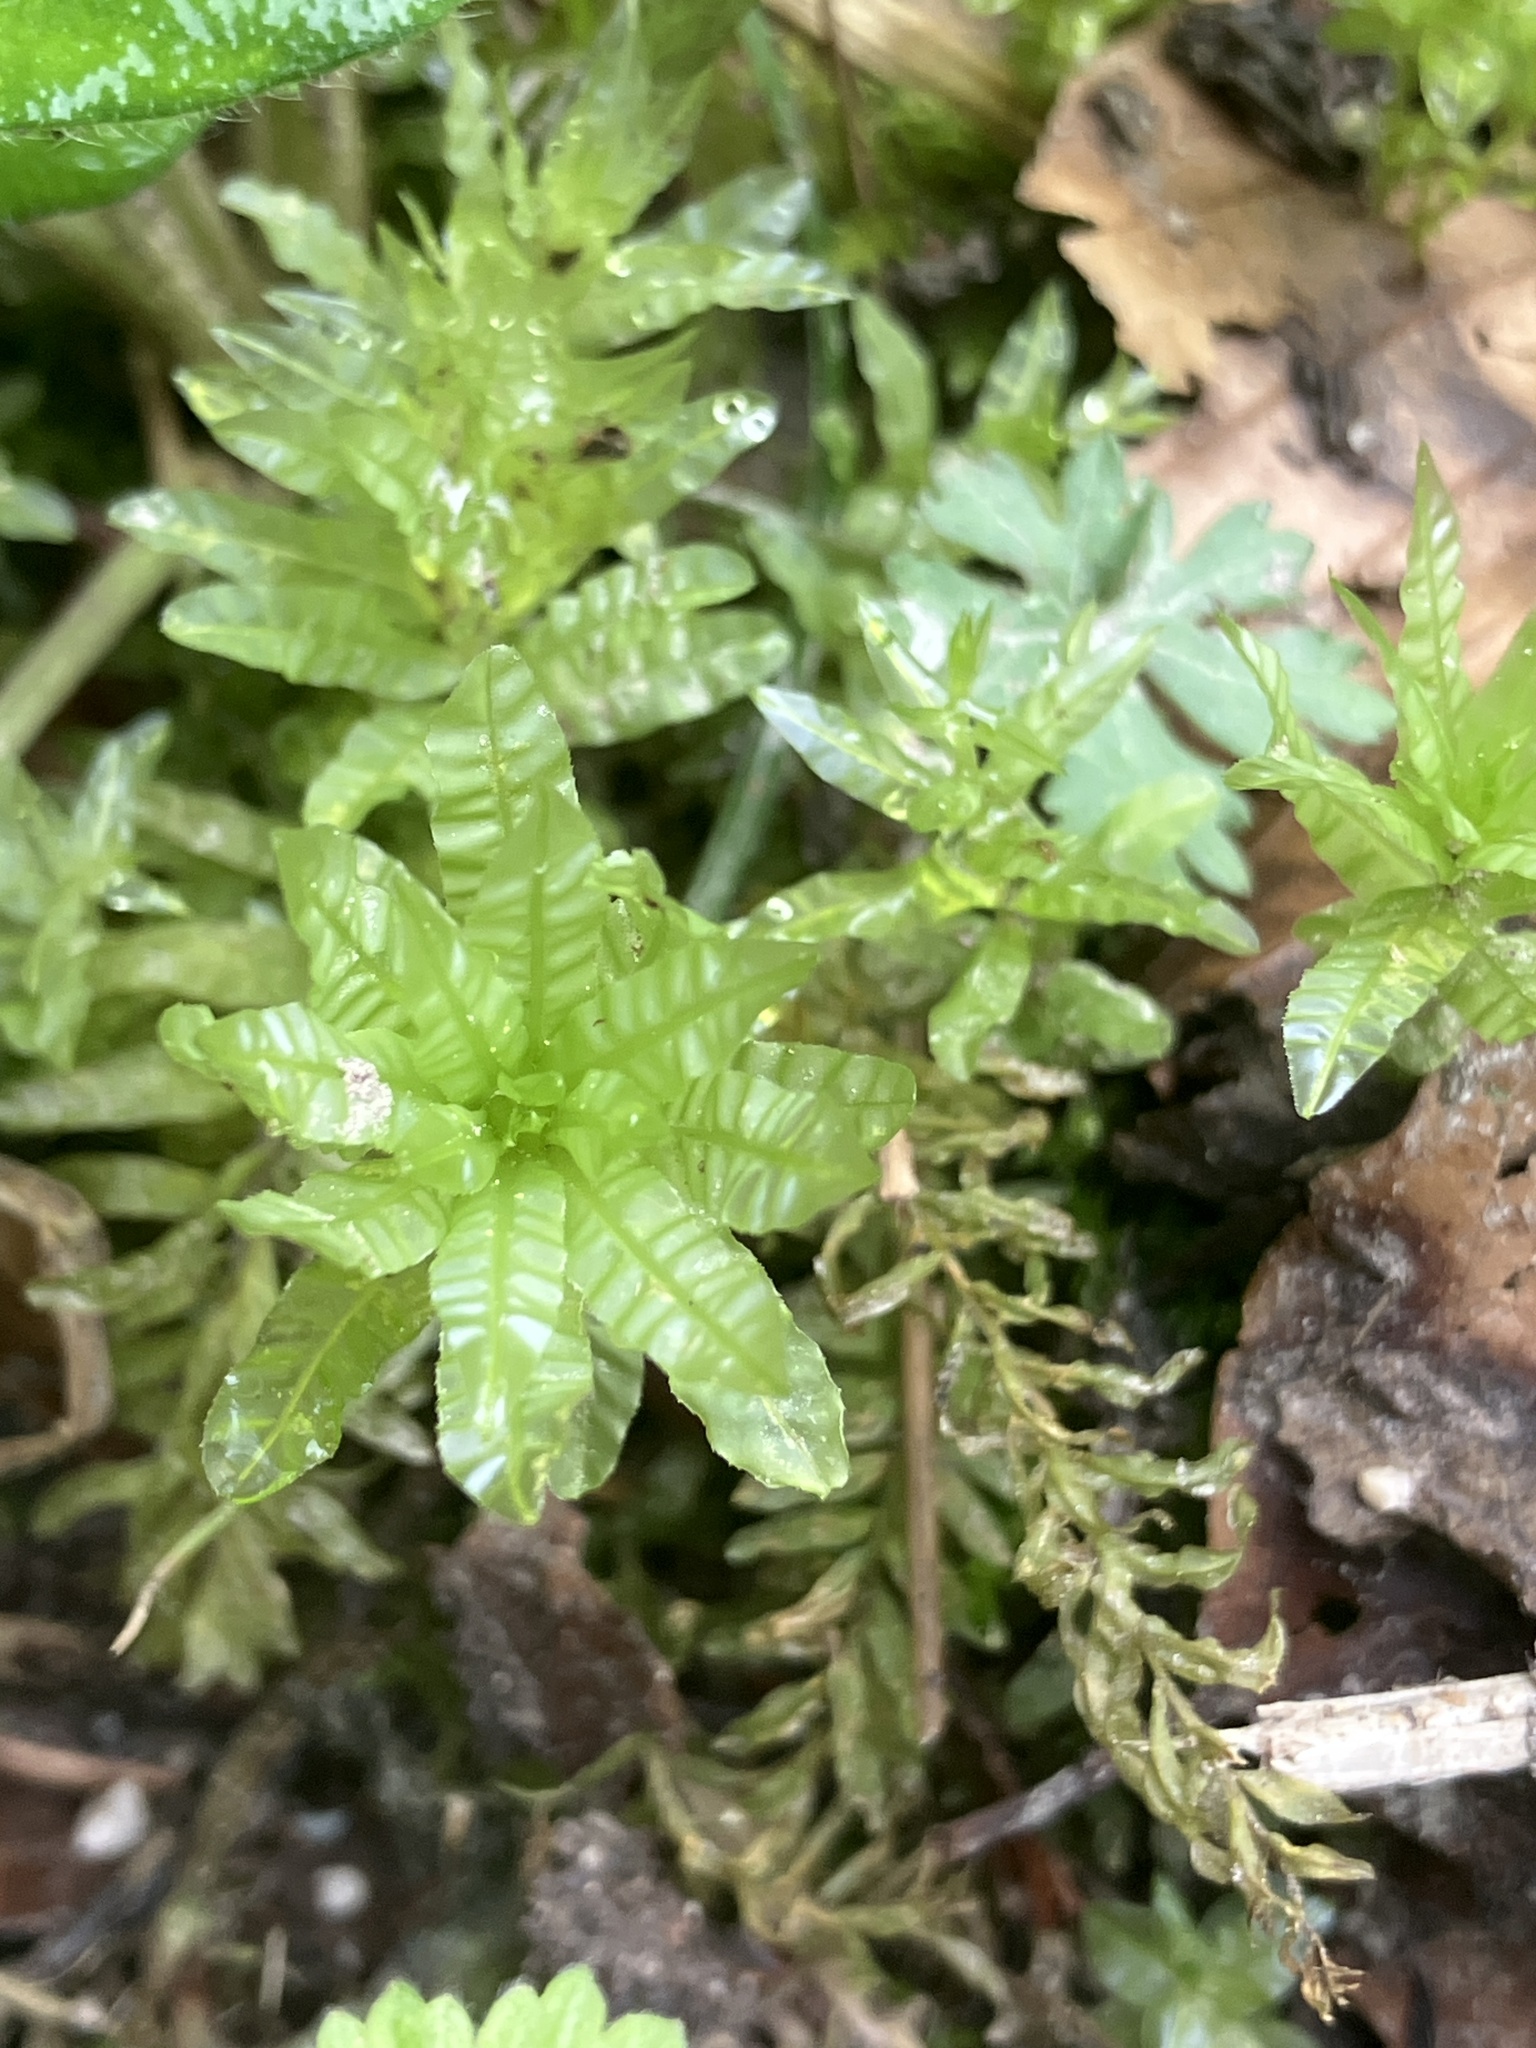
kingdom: Plantae
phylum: Bryophyta
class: Bryopsida
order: Bryales
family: Mniaceae
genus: Plagiomnium
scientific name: Plagiomnium undulatum
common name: Hart's-tongue thyme-moss
